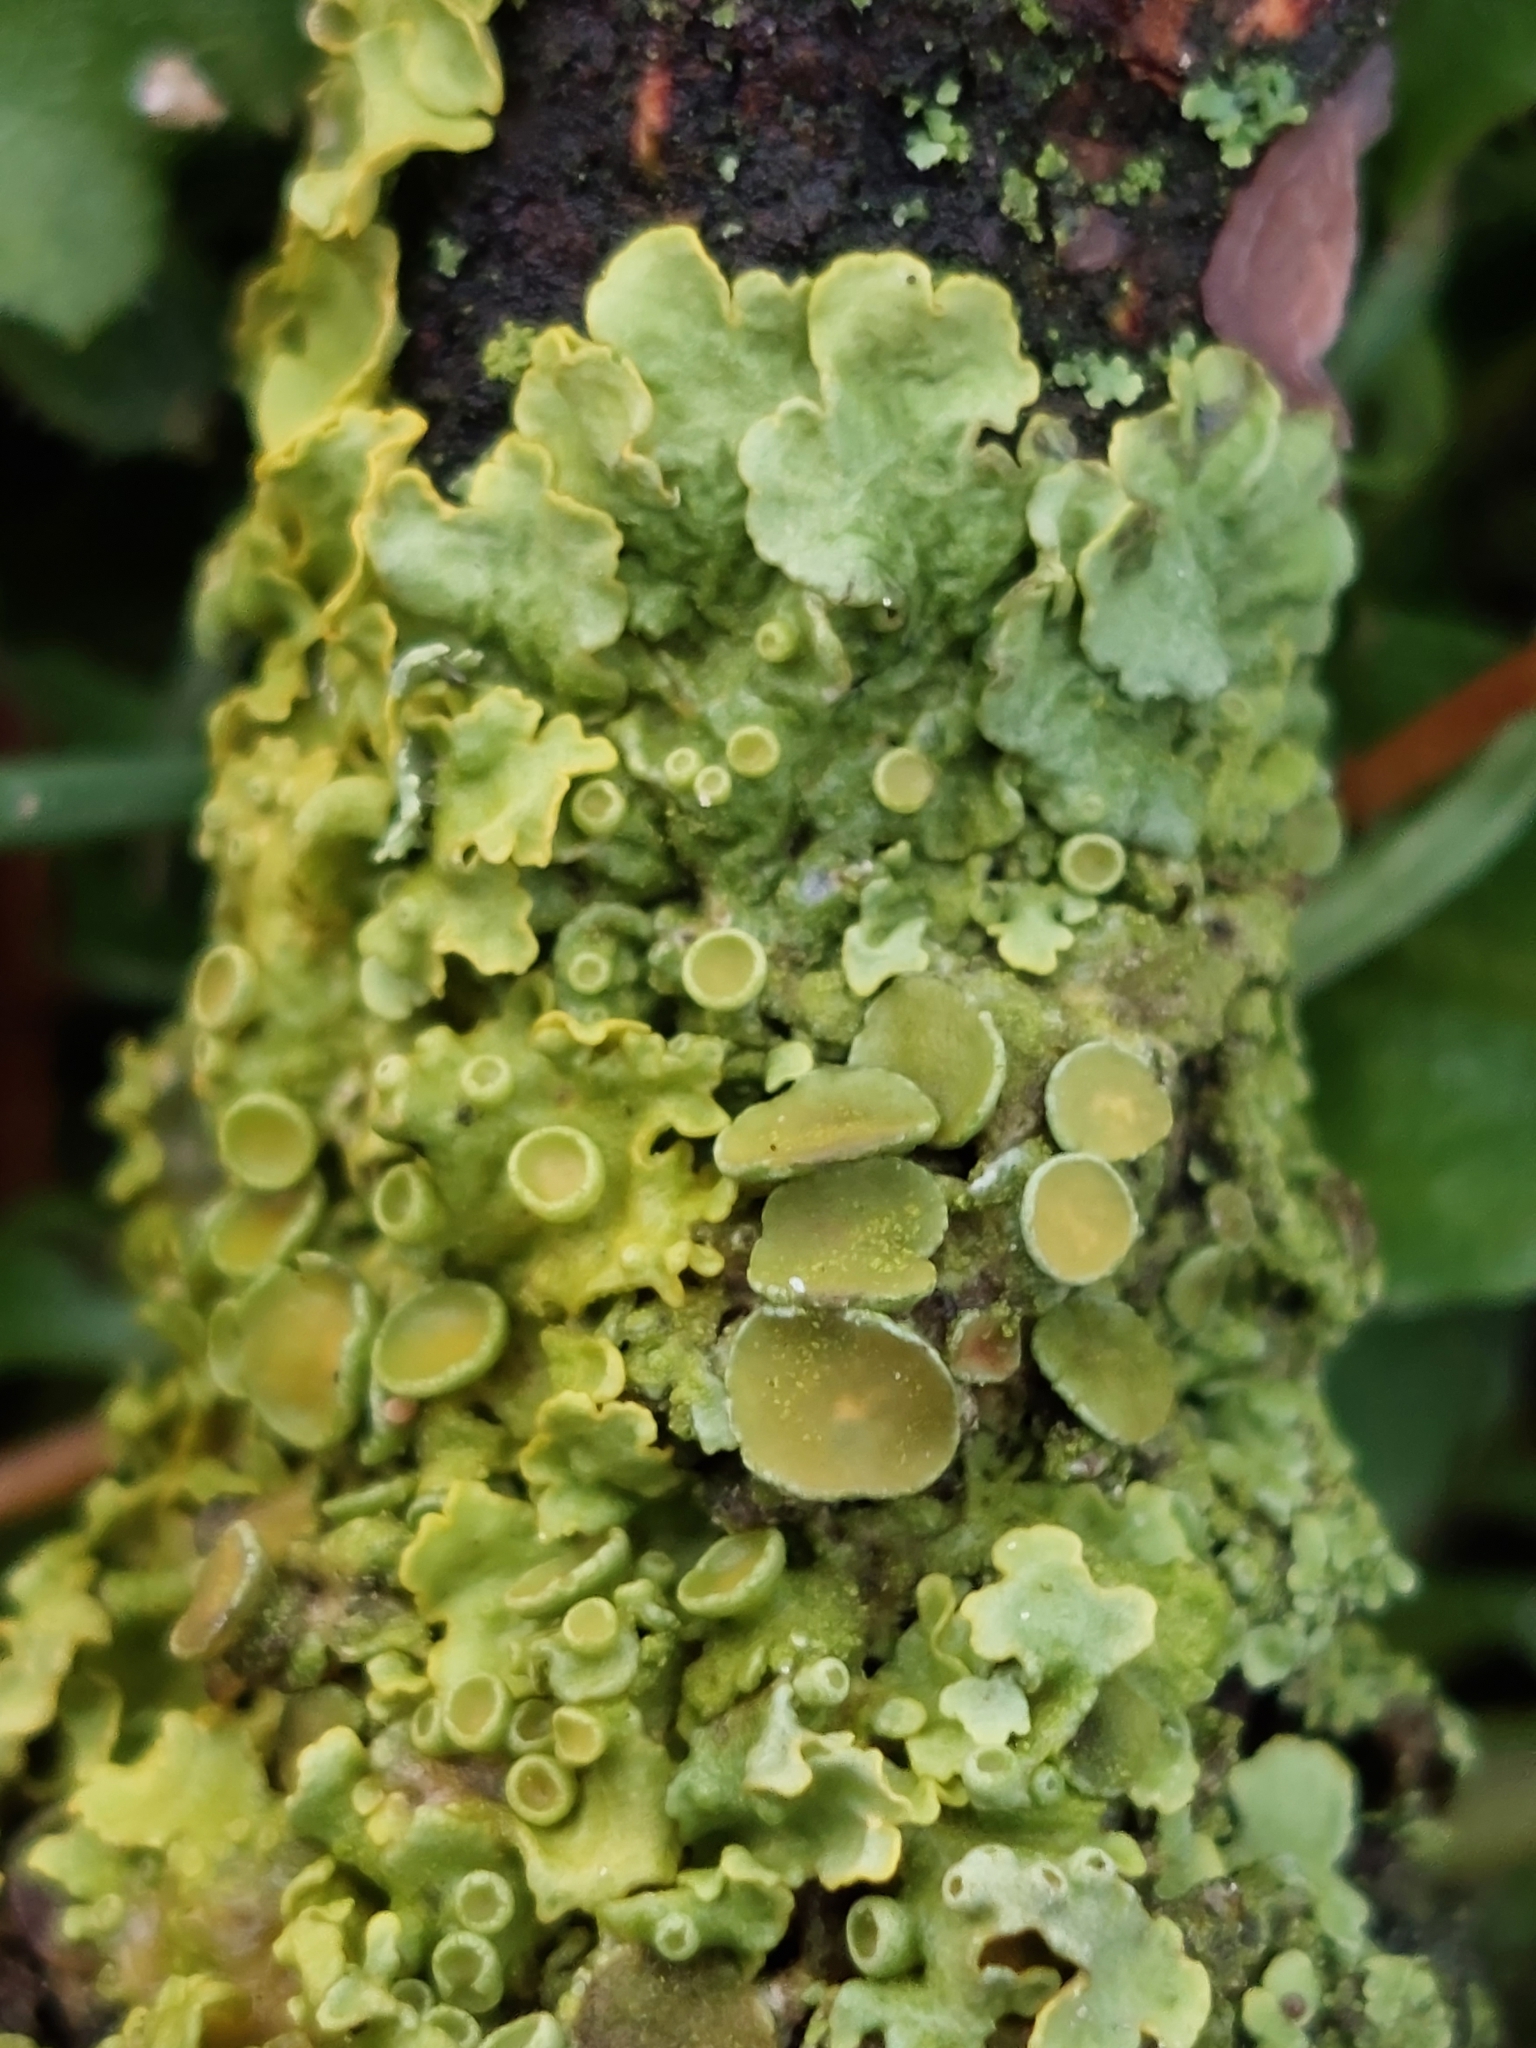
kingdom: Fungi
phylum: Ascomycota
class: Lecanoromycetes
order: Teloschistales
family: Teloschistaceae
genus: Xanthoria
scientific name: Xanthoria parietina
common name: Common orange lichen
